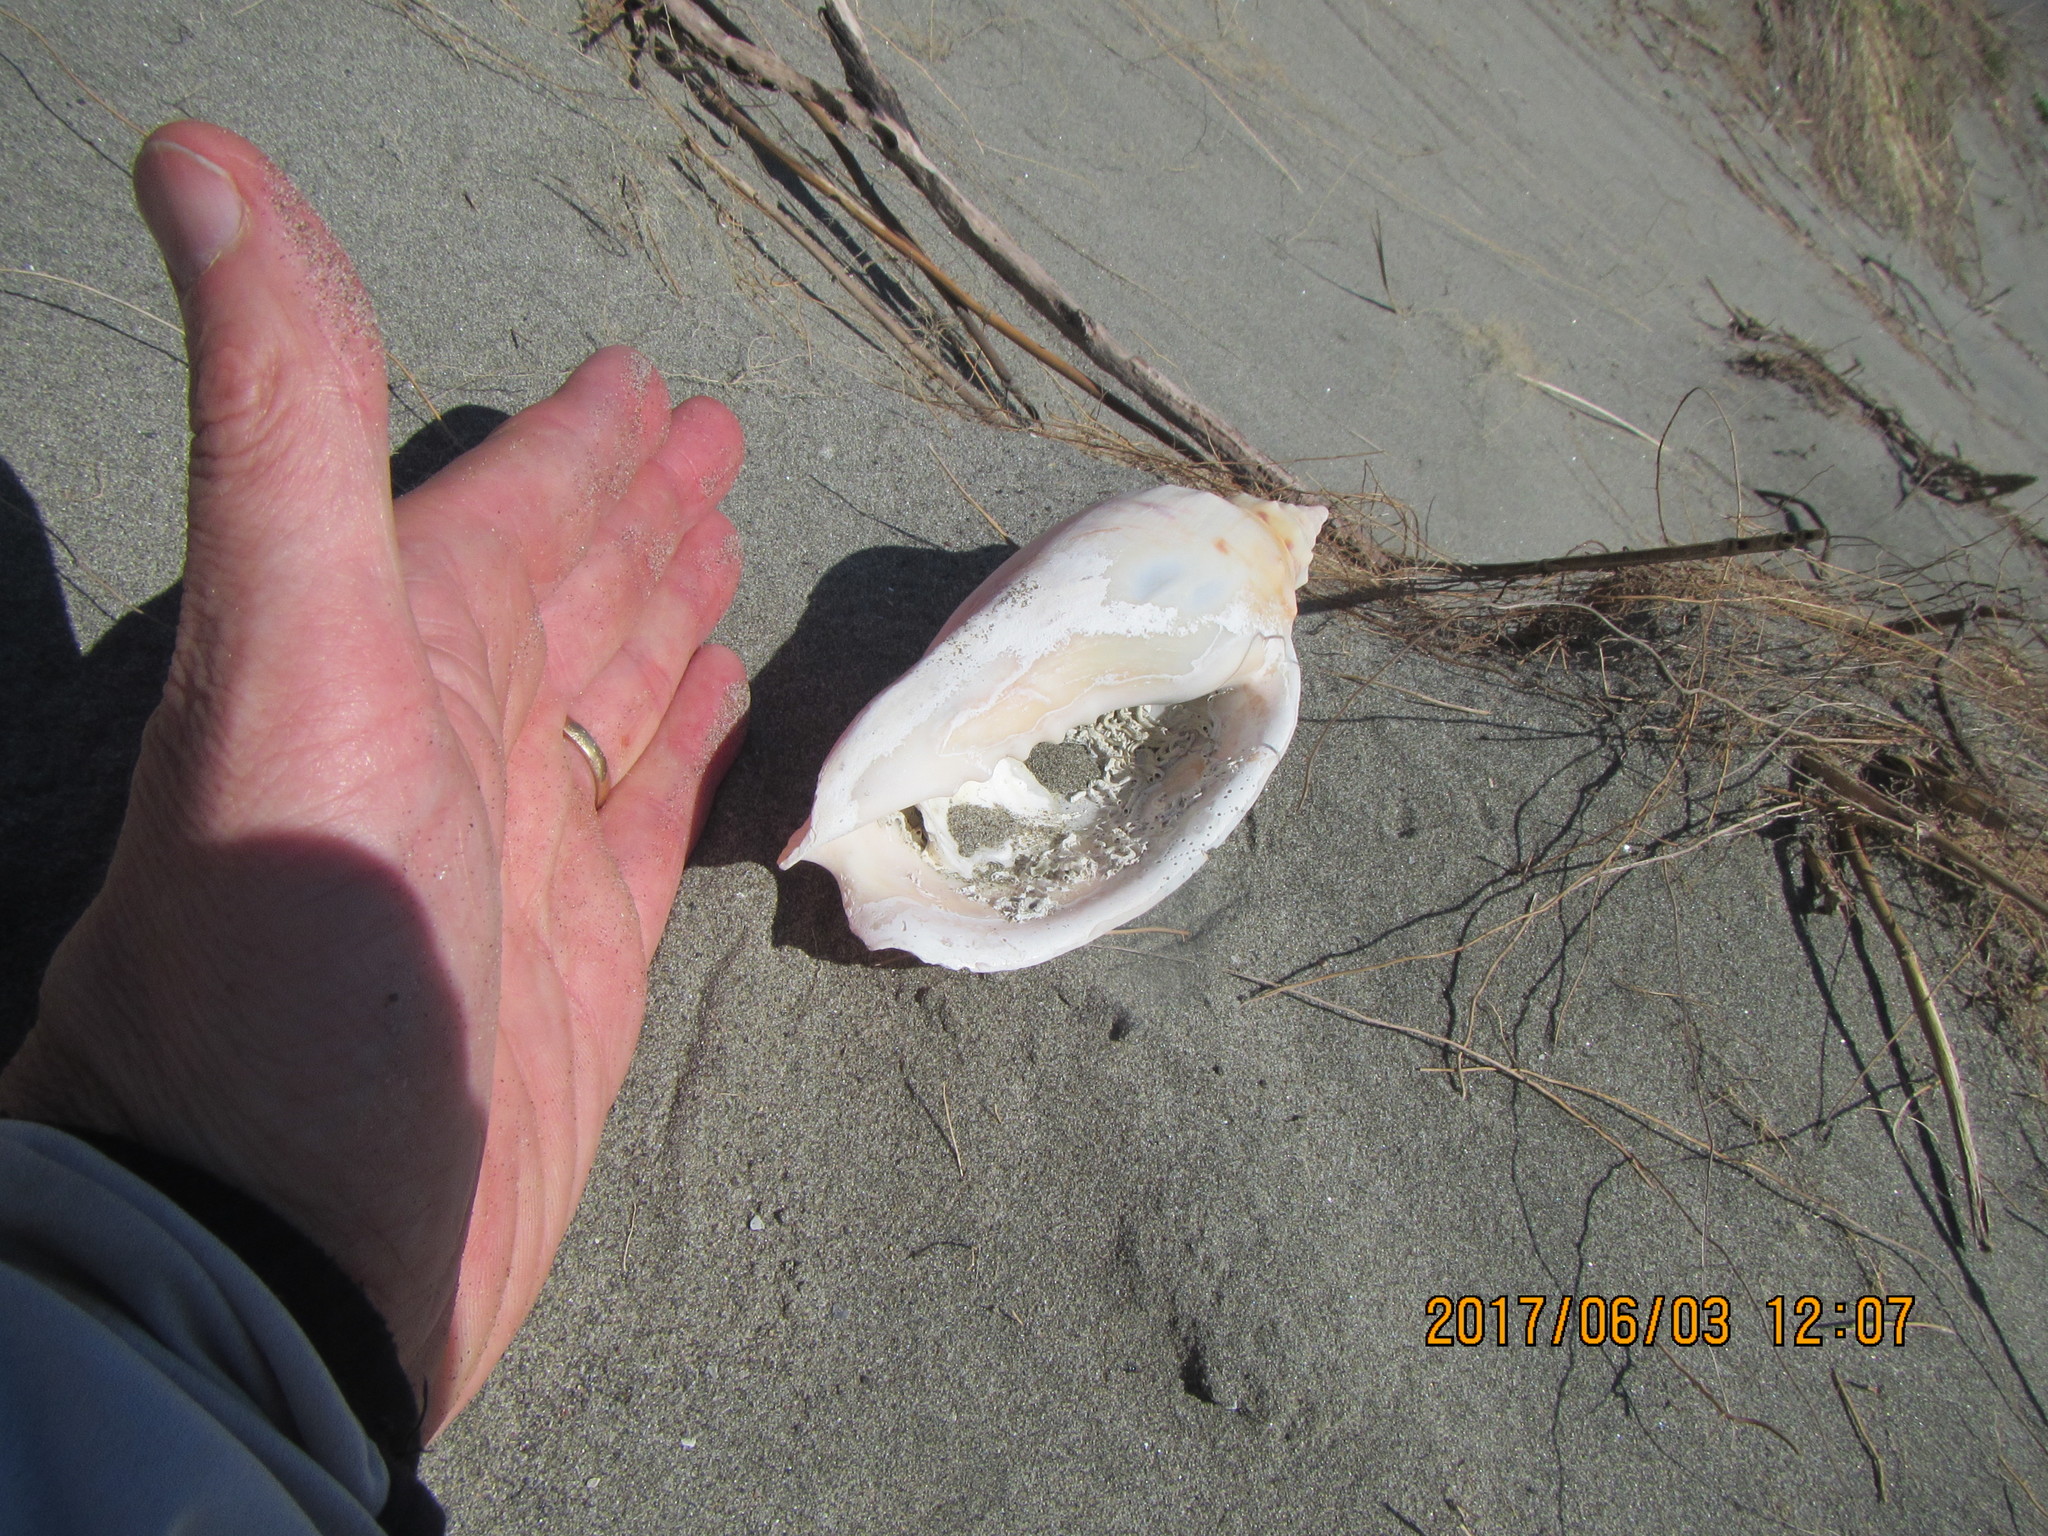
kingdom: Animalia
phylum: Mollusca
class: Gastropoda
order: Neogastropoda
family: Volutidae
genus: Alcithoe
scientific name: Alcithoe arabica
